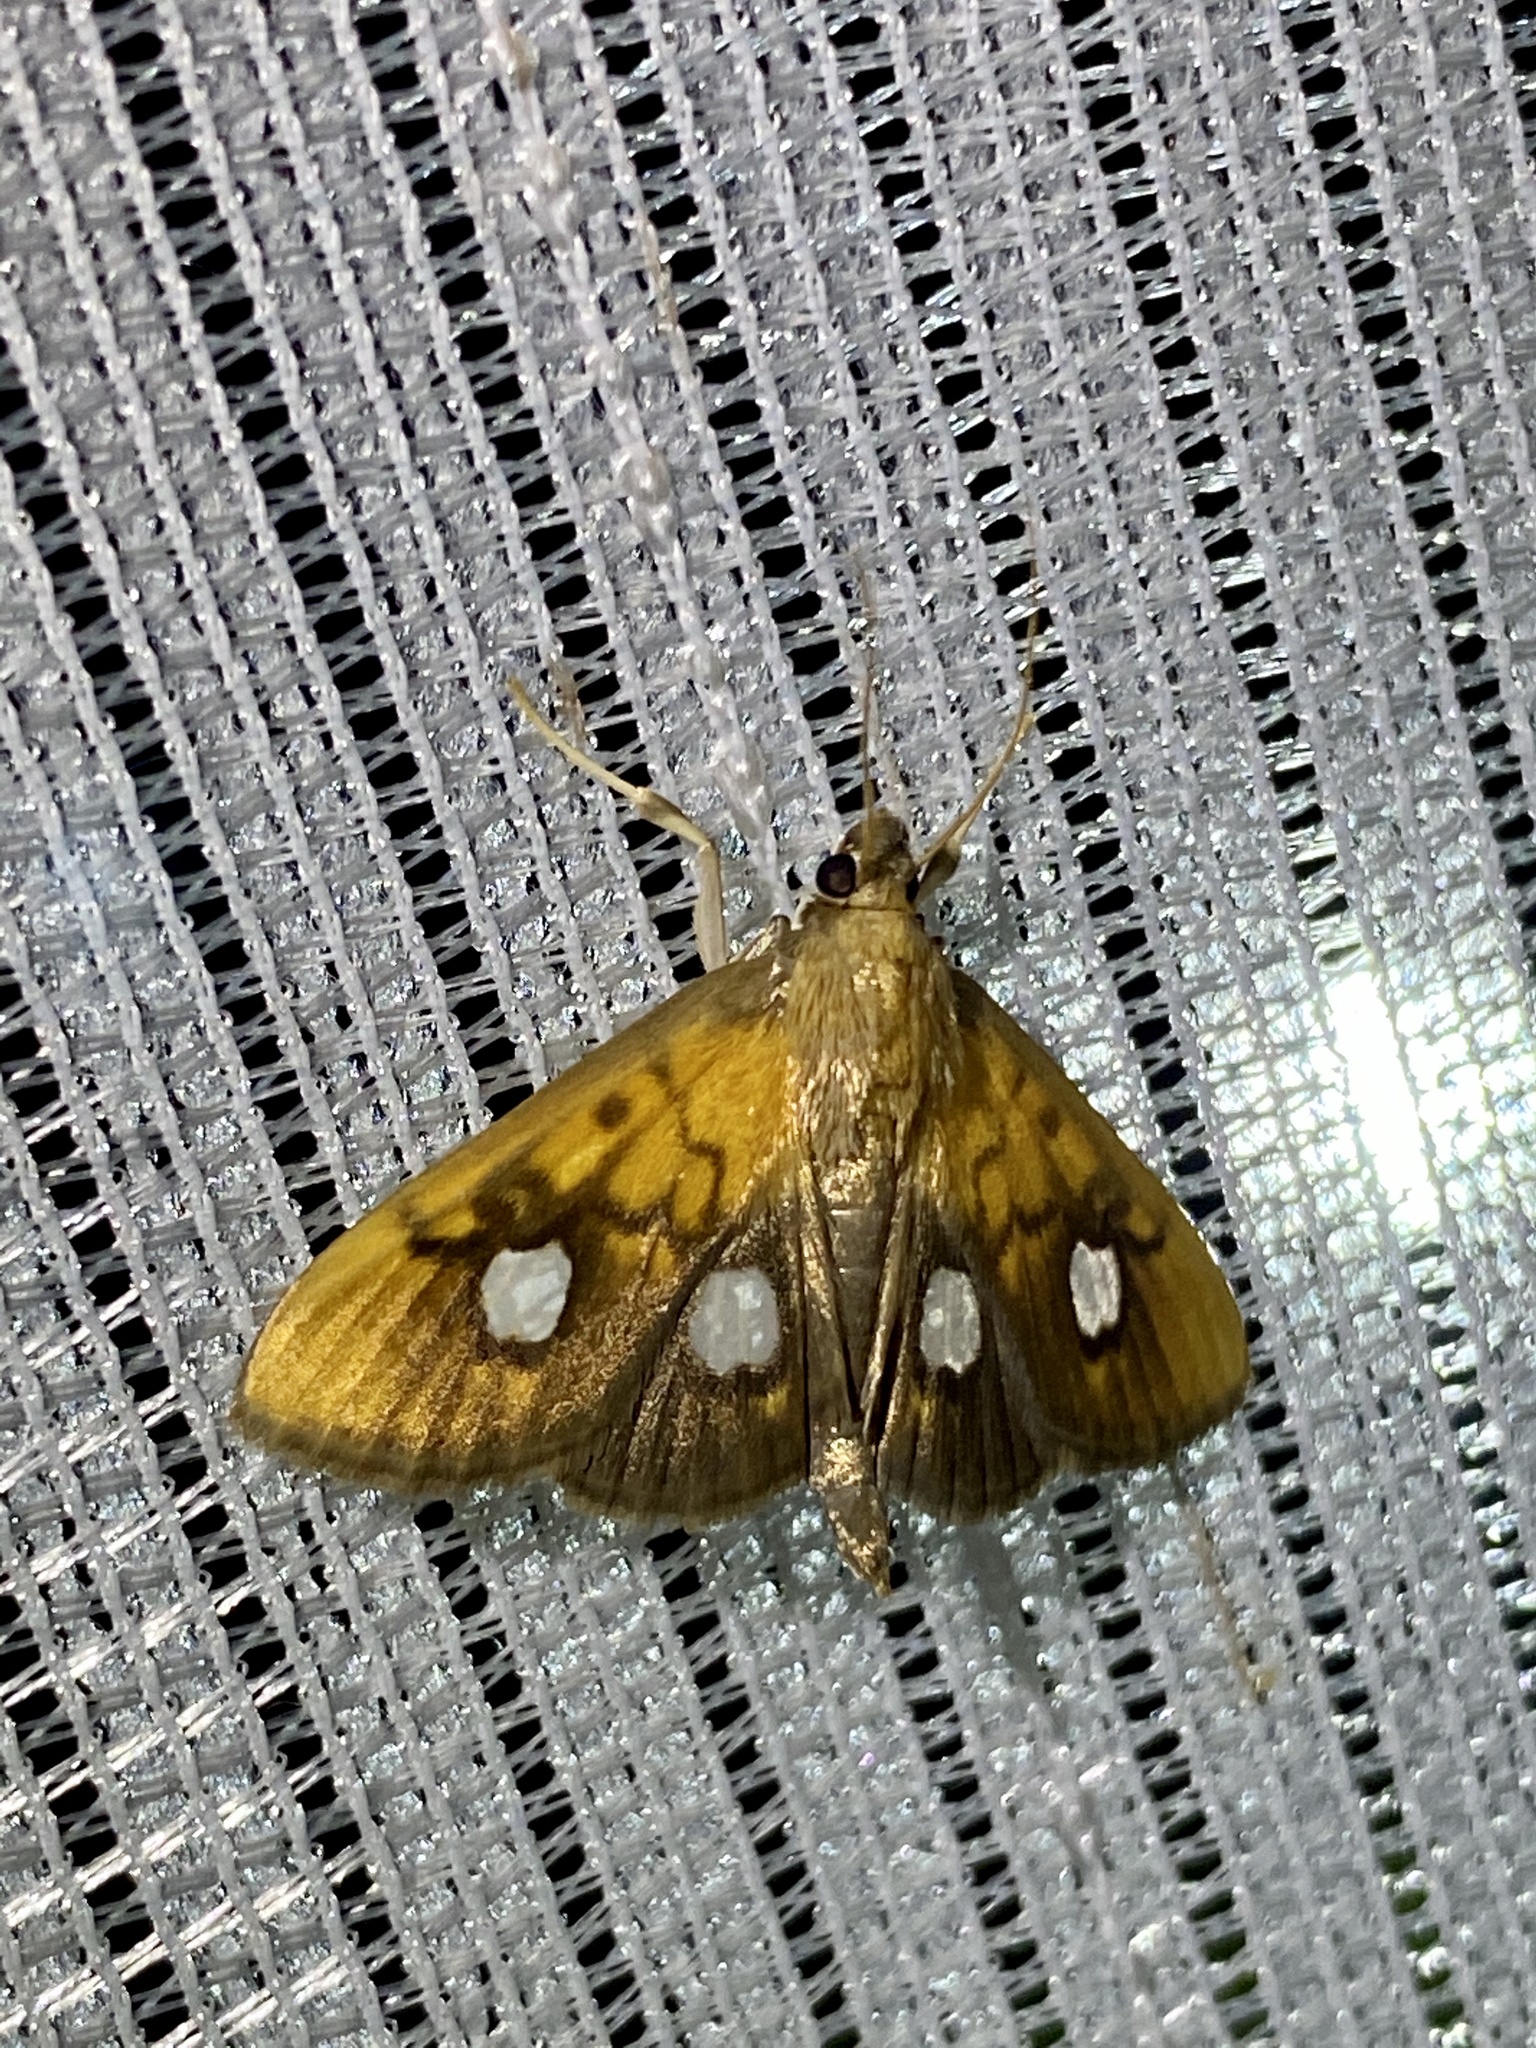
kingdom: Animalia
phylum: Arthropoda
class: Insecta
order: Lepidoptera
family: Crambidae
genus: Nosophora
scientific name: Nosophora semitritalis
